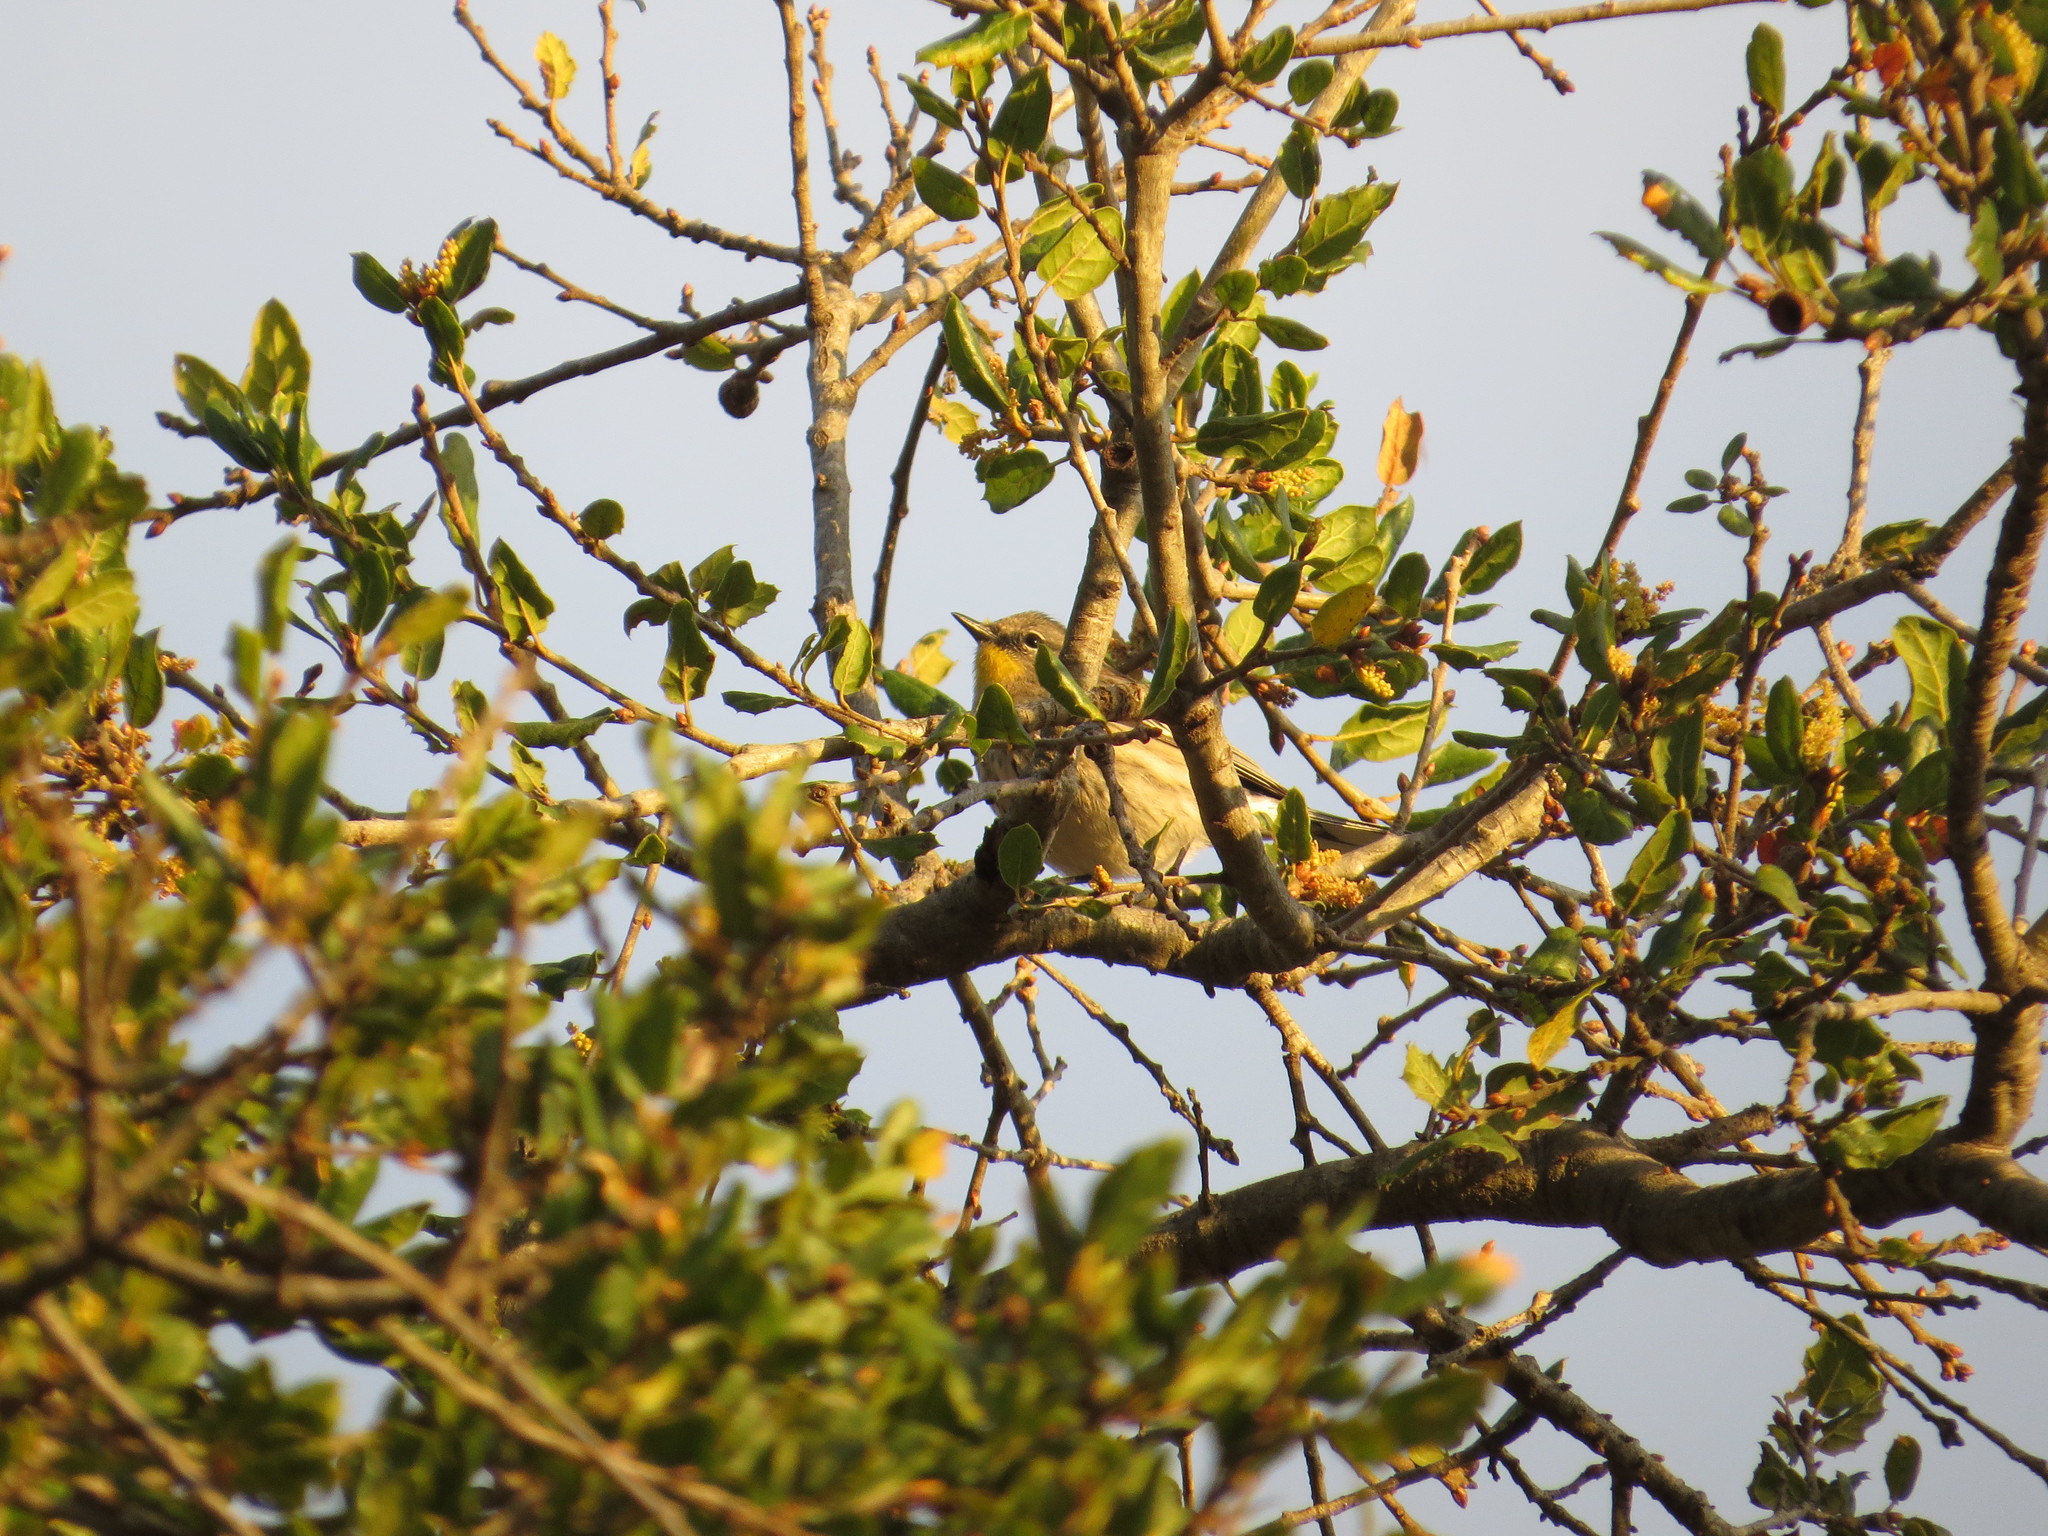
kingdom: Animalia
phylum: Chordata
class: Aves
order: Passeriformes
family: Parulidae
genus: Setophaga
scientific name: Setophaga auduboni
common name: Audubon's warbler
